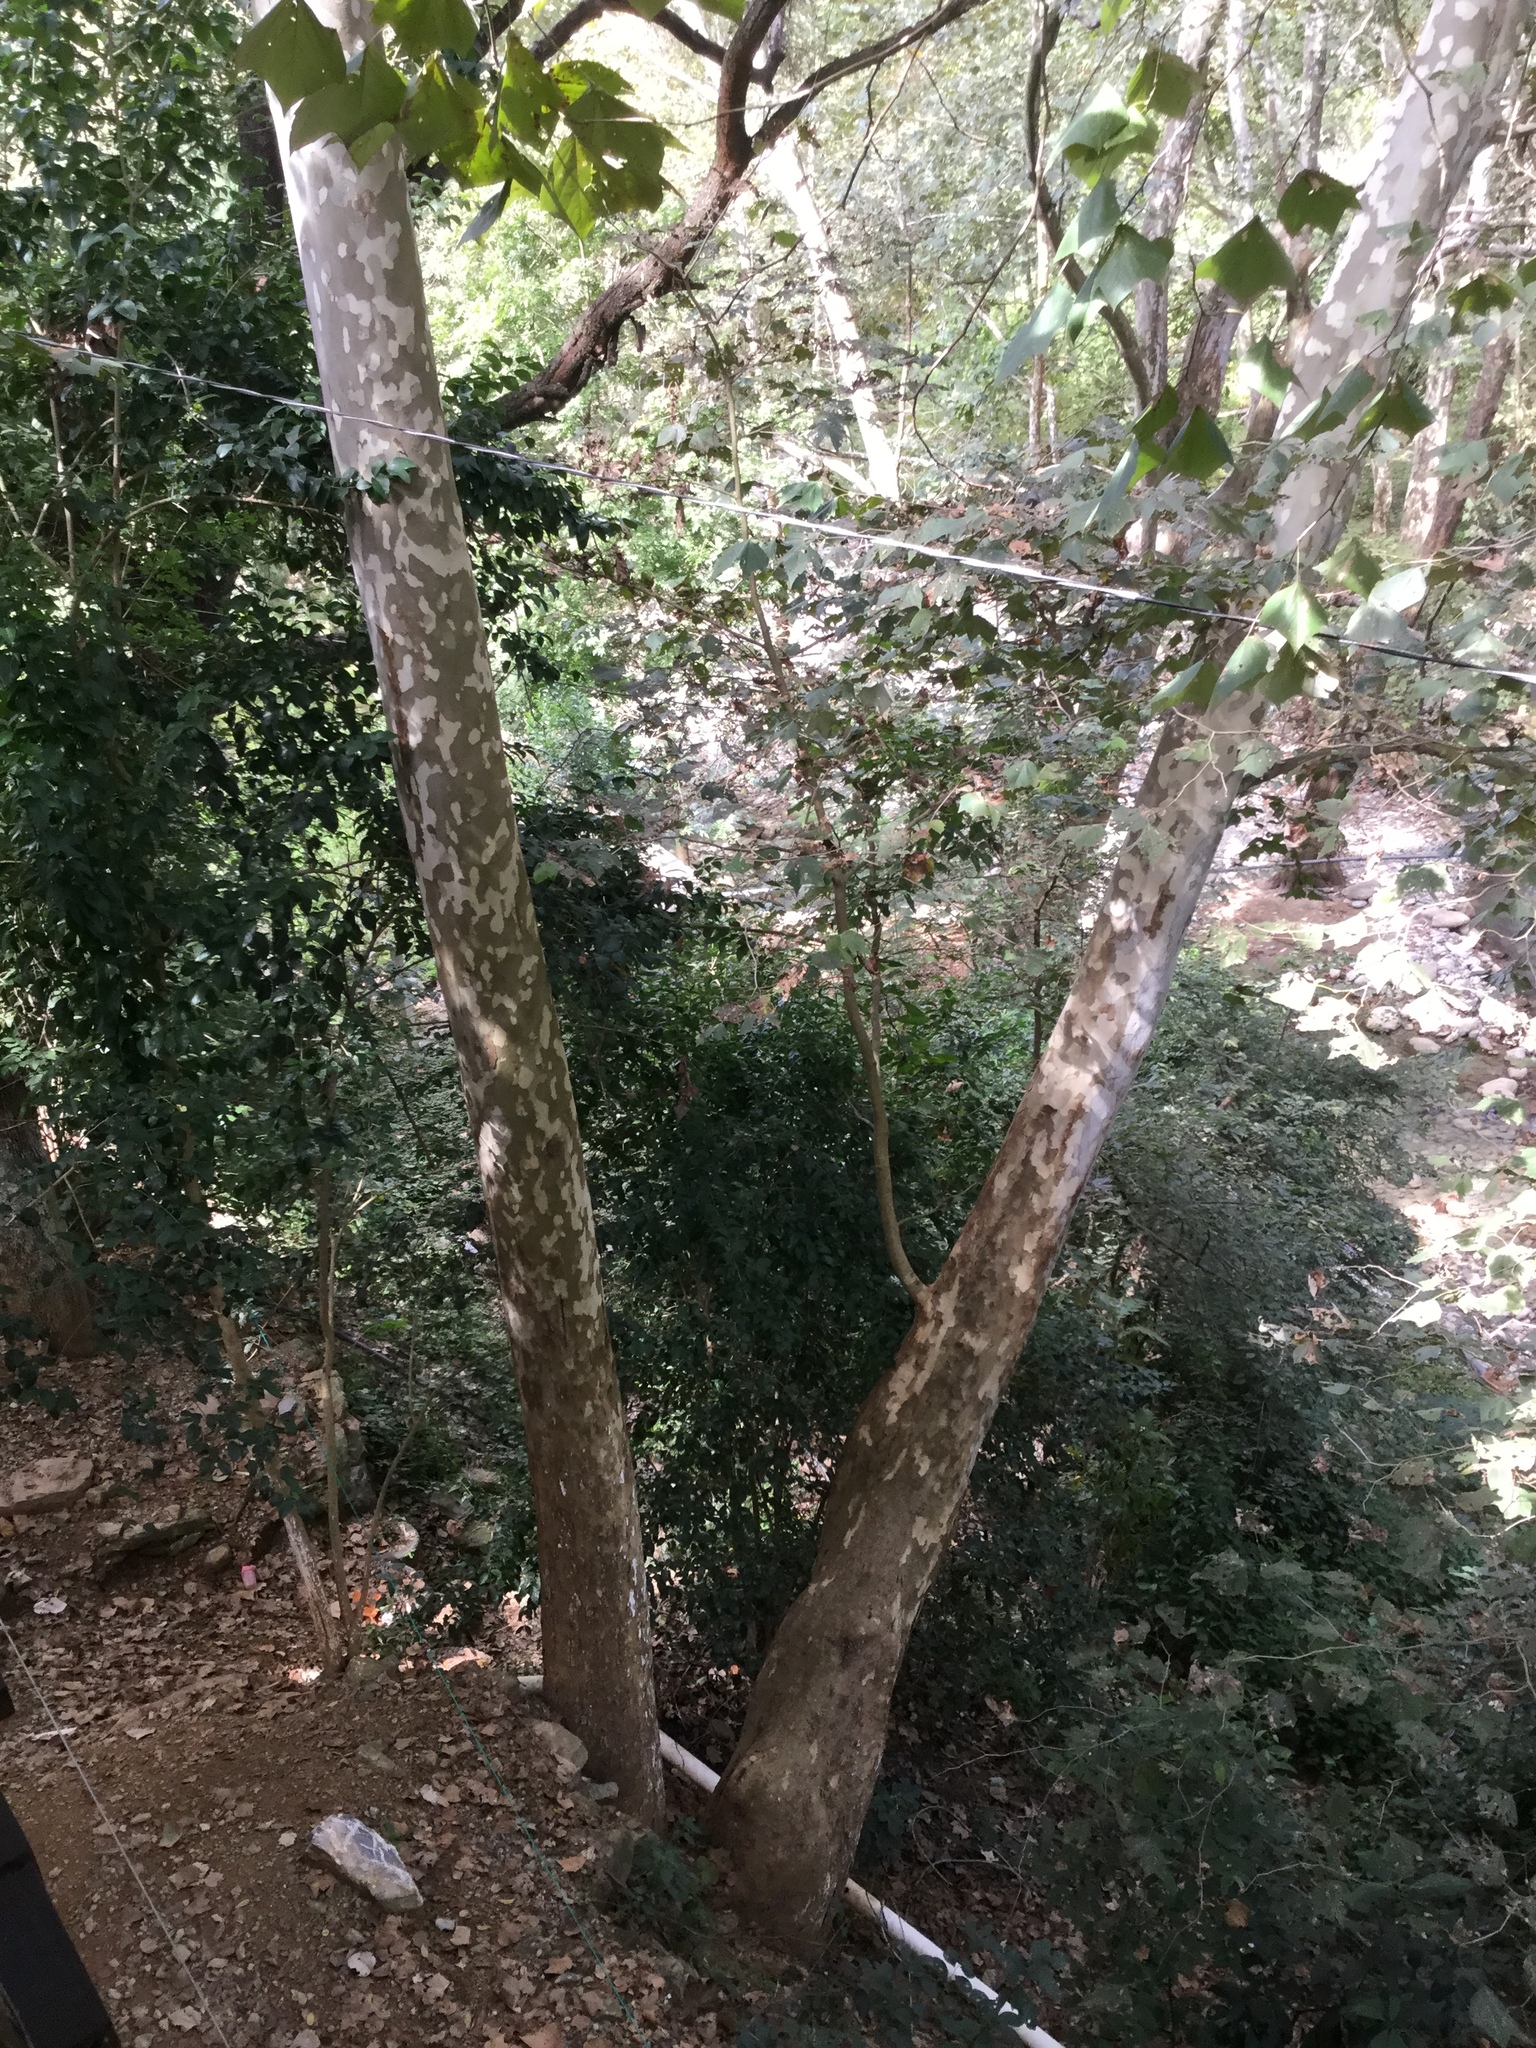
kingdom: Plantae
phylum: Tracheophyta
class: Magnoliopsida
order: Proteales
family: Platanaceae
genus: Platanus
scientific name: Platanus mexicana
